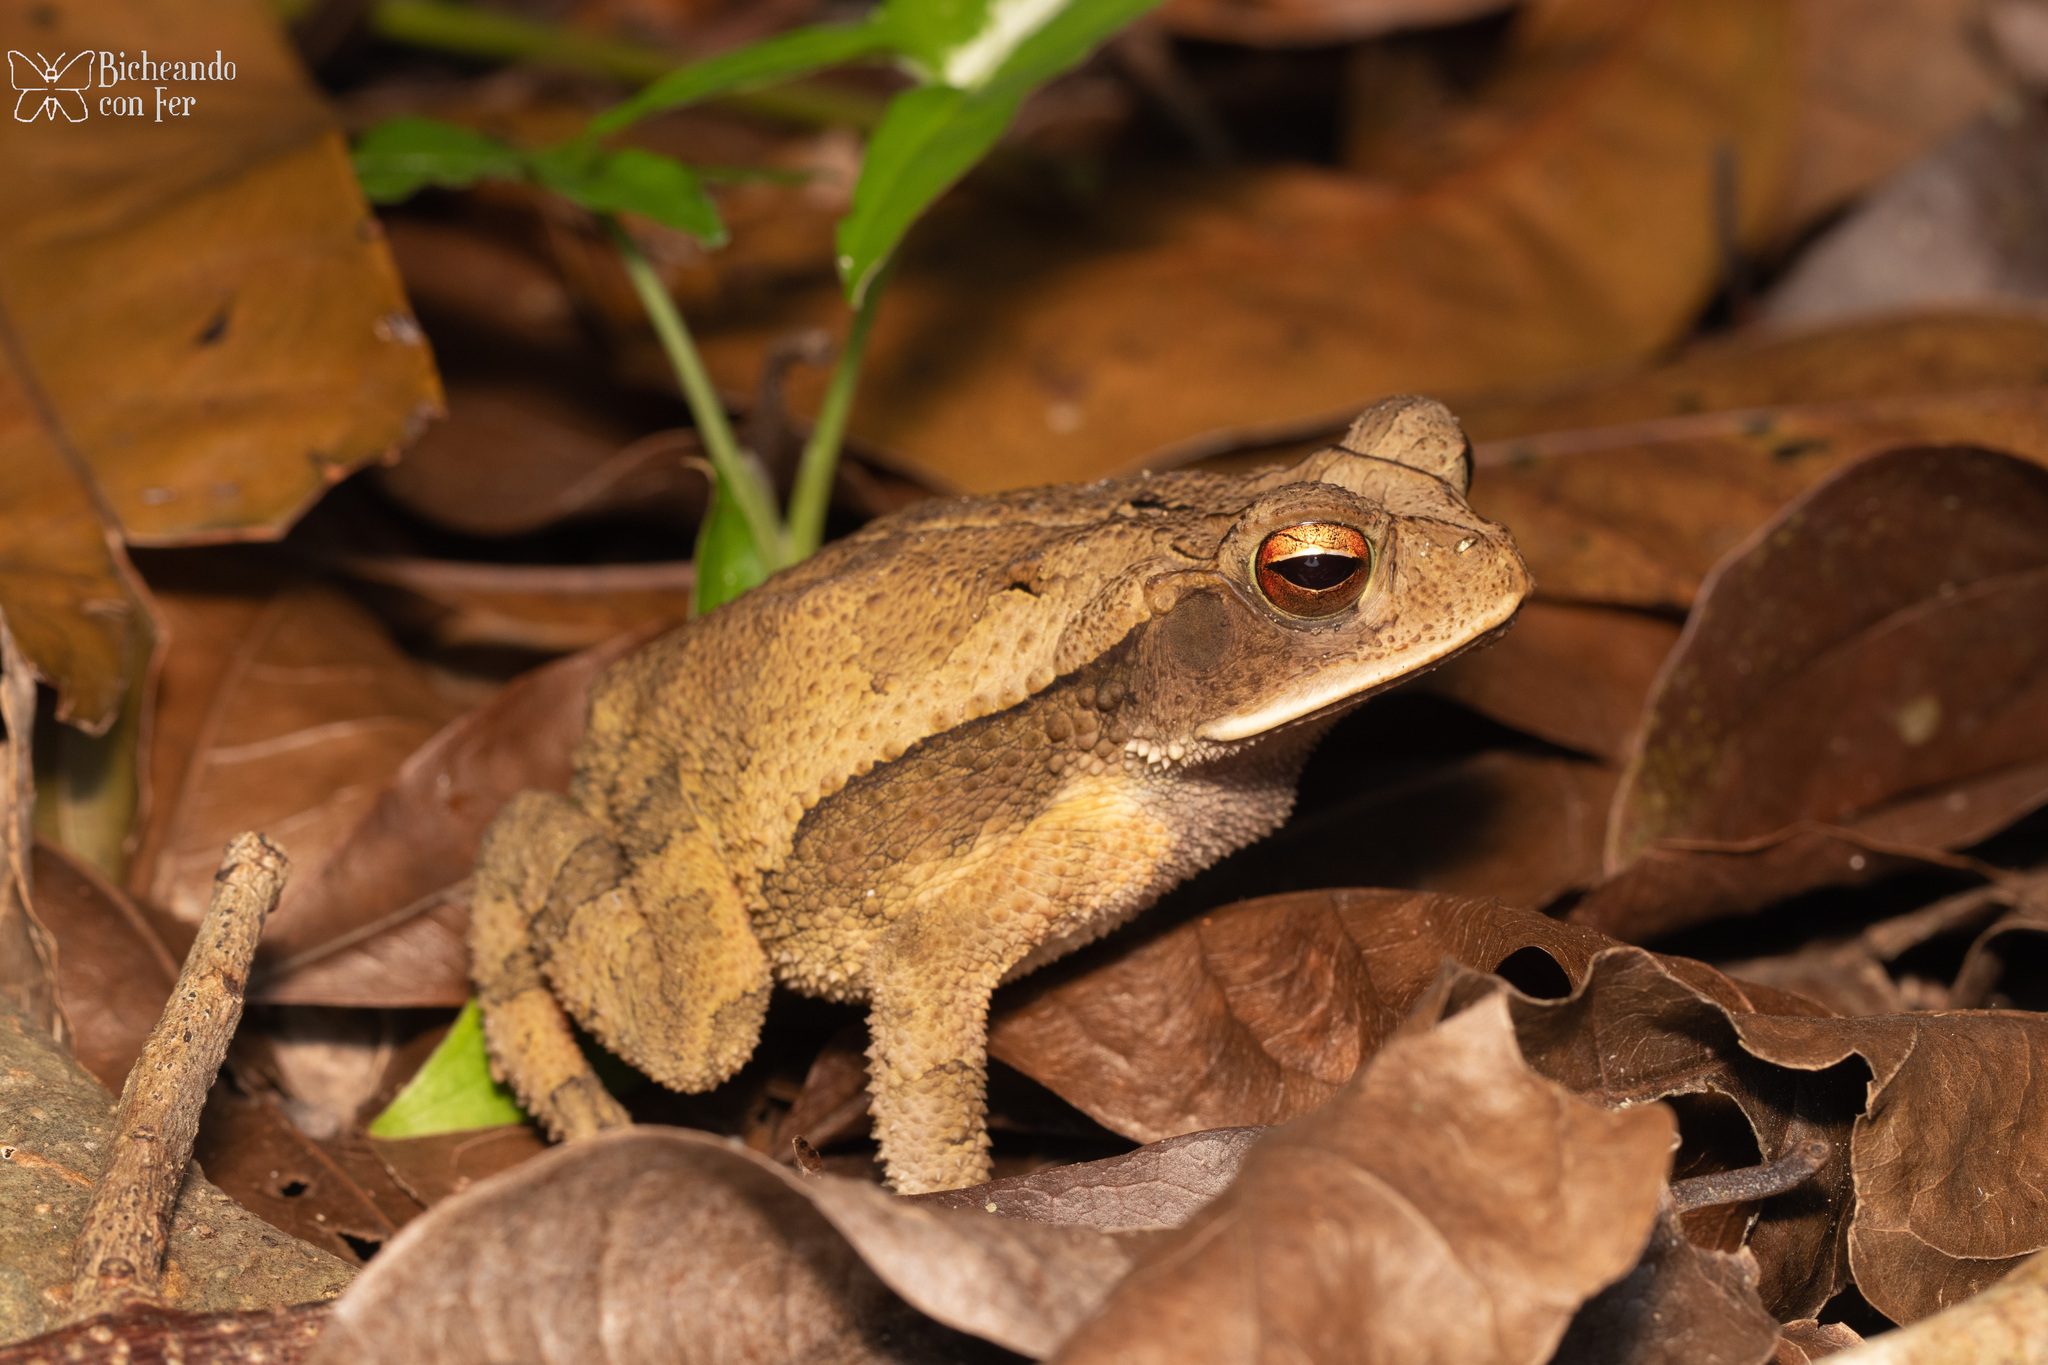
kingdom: Animalia
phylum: Chordata
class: Amphibia
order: Anura
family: Bufonidae
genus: Incilius
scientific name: Incilius valliceps
